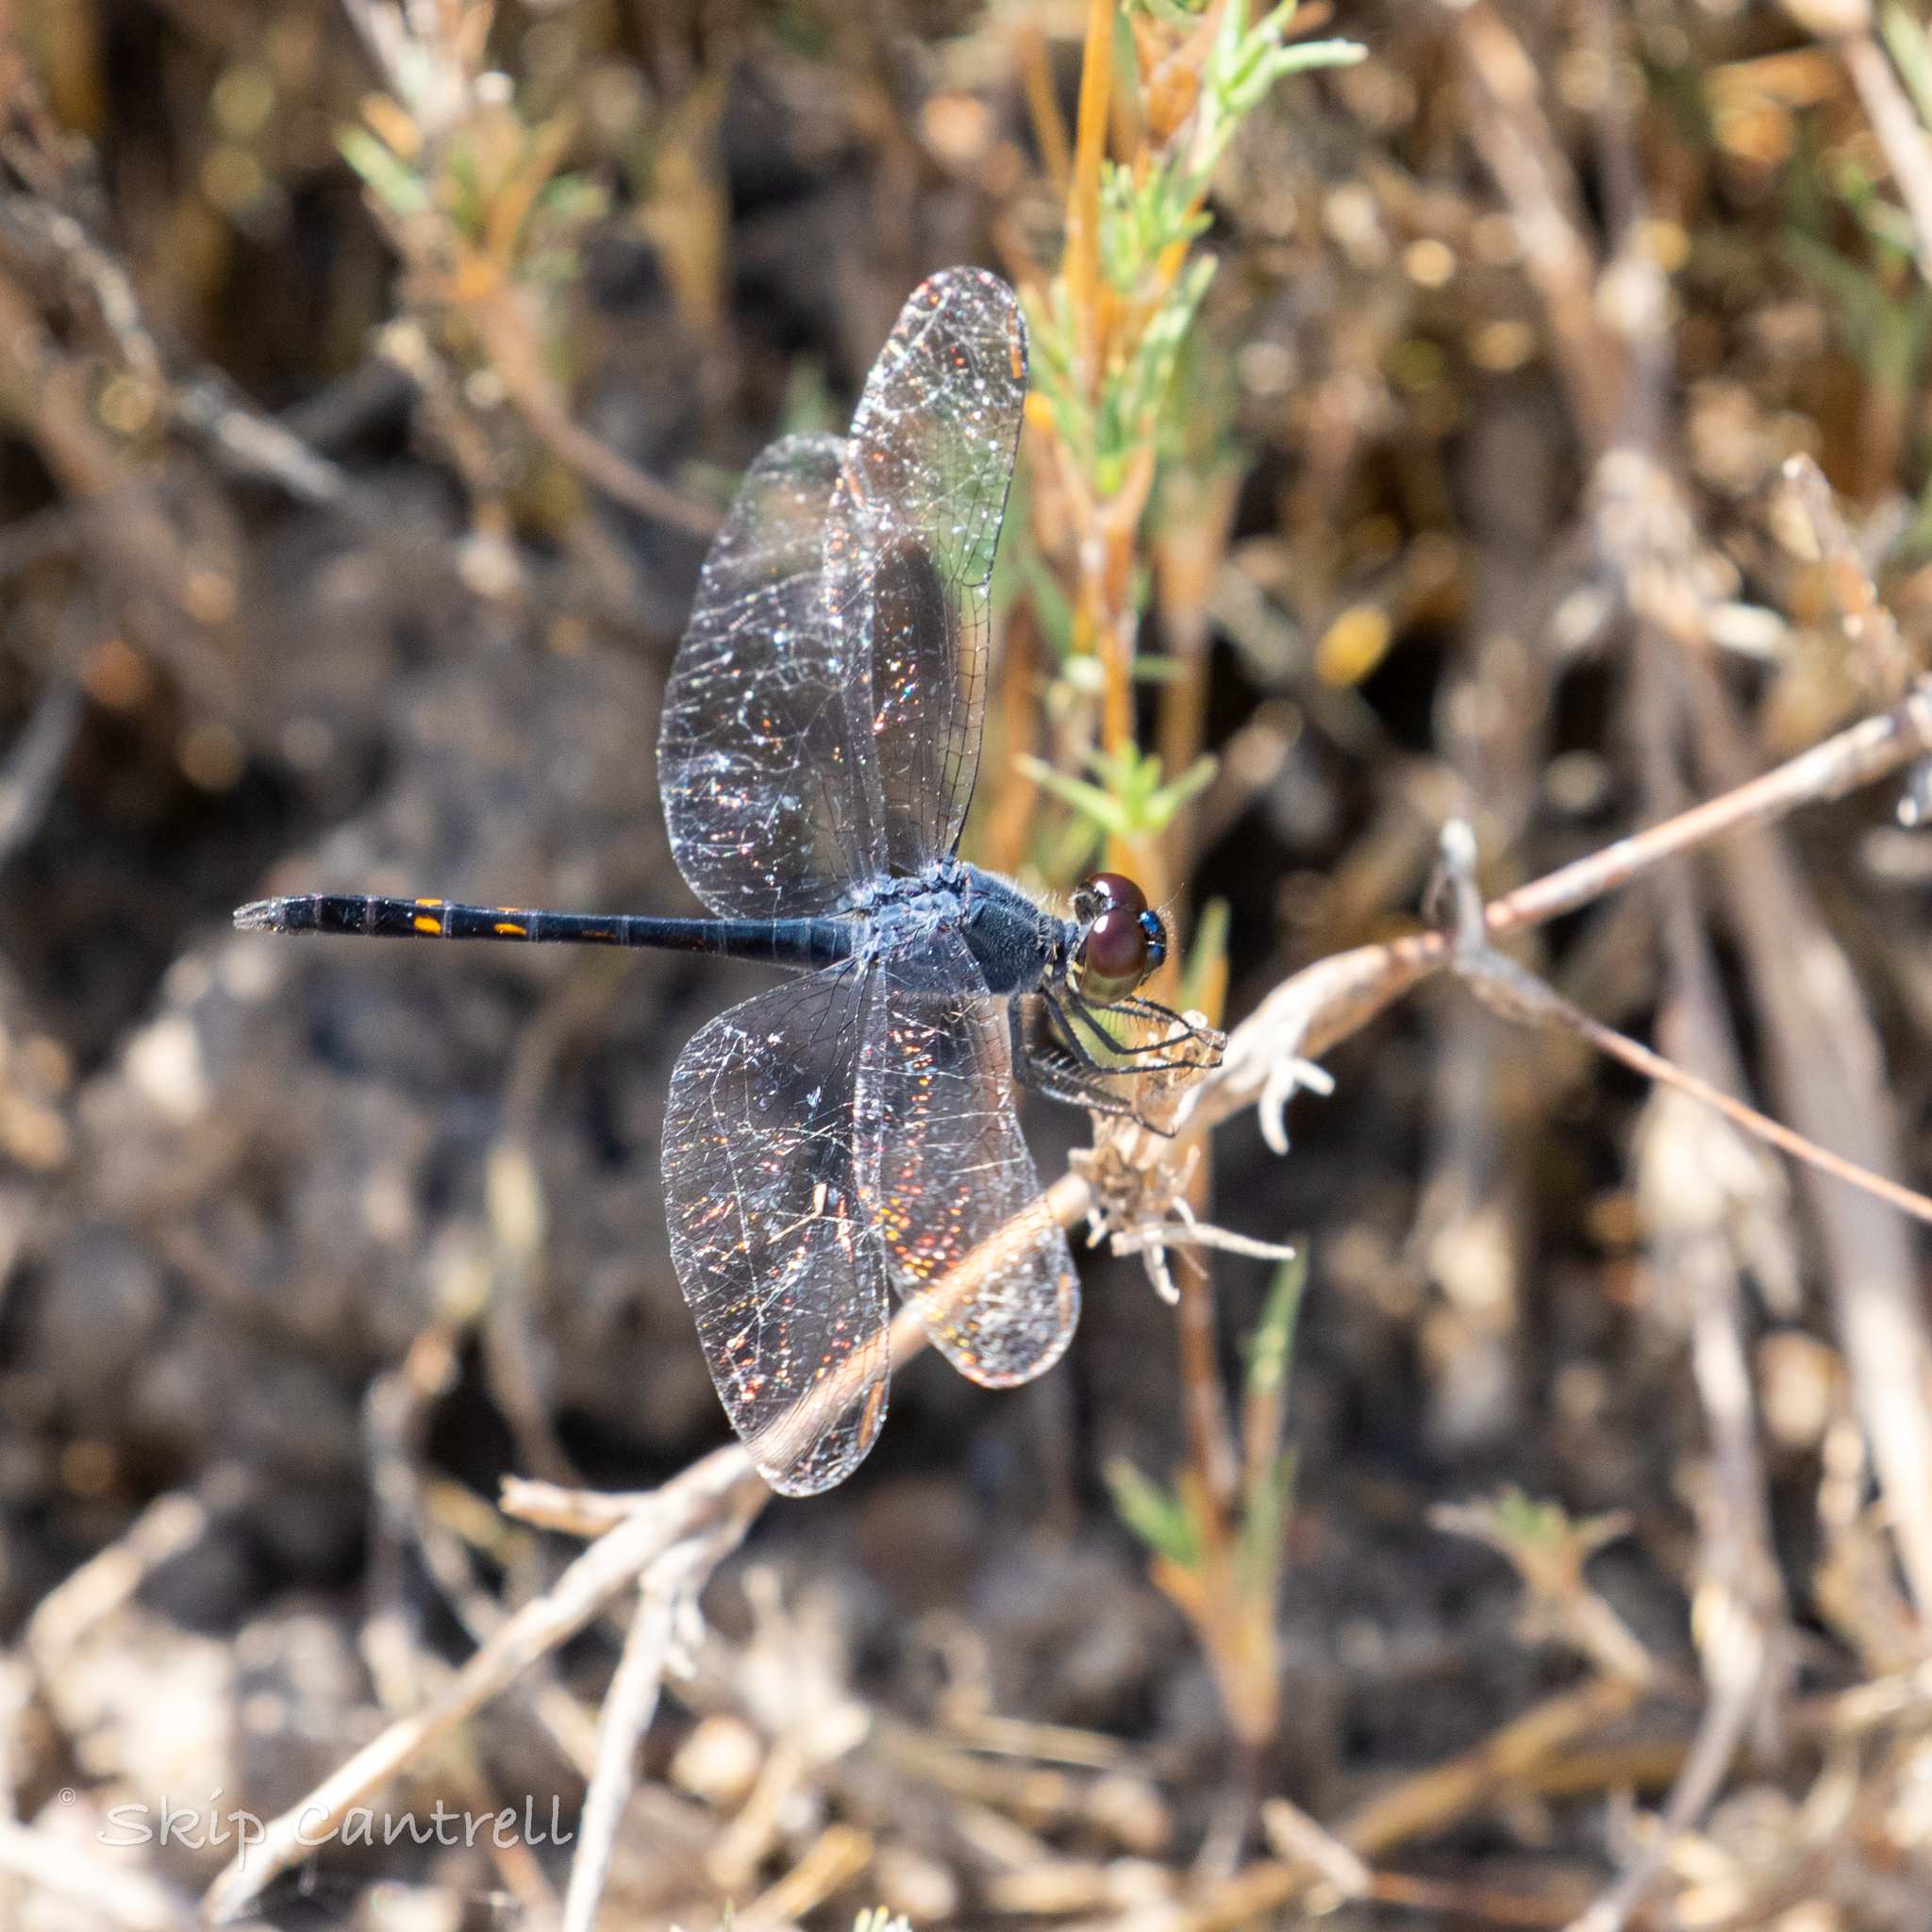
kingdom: Animalia
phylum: Arthropoda
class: Insecta
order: Odonata
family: Libellulidae
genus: Erythrodiplax
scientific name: Erythrodiplax berenice
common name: Seaside dragonlet
